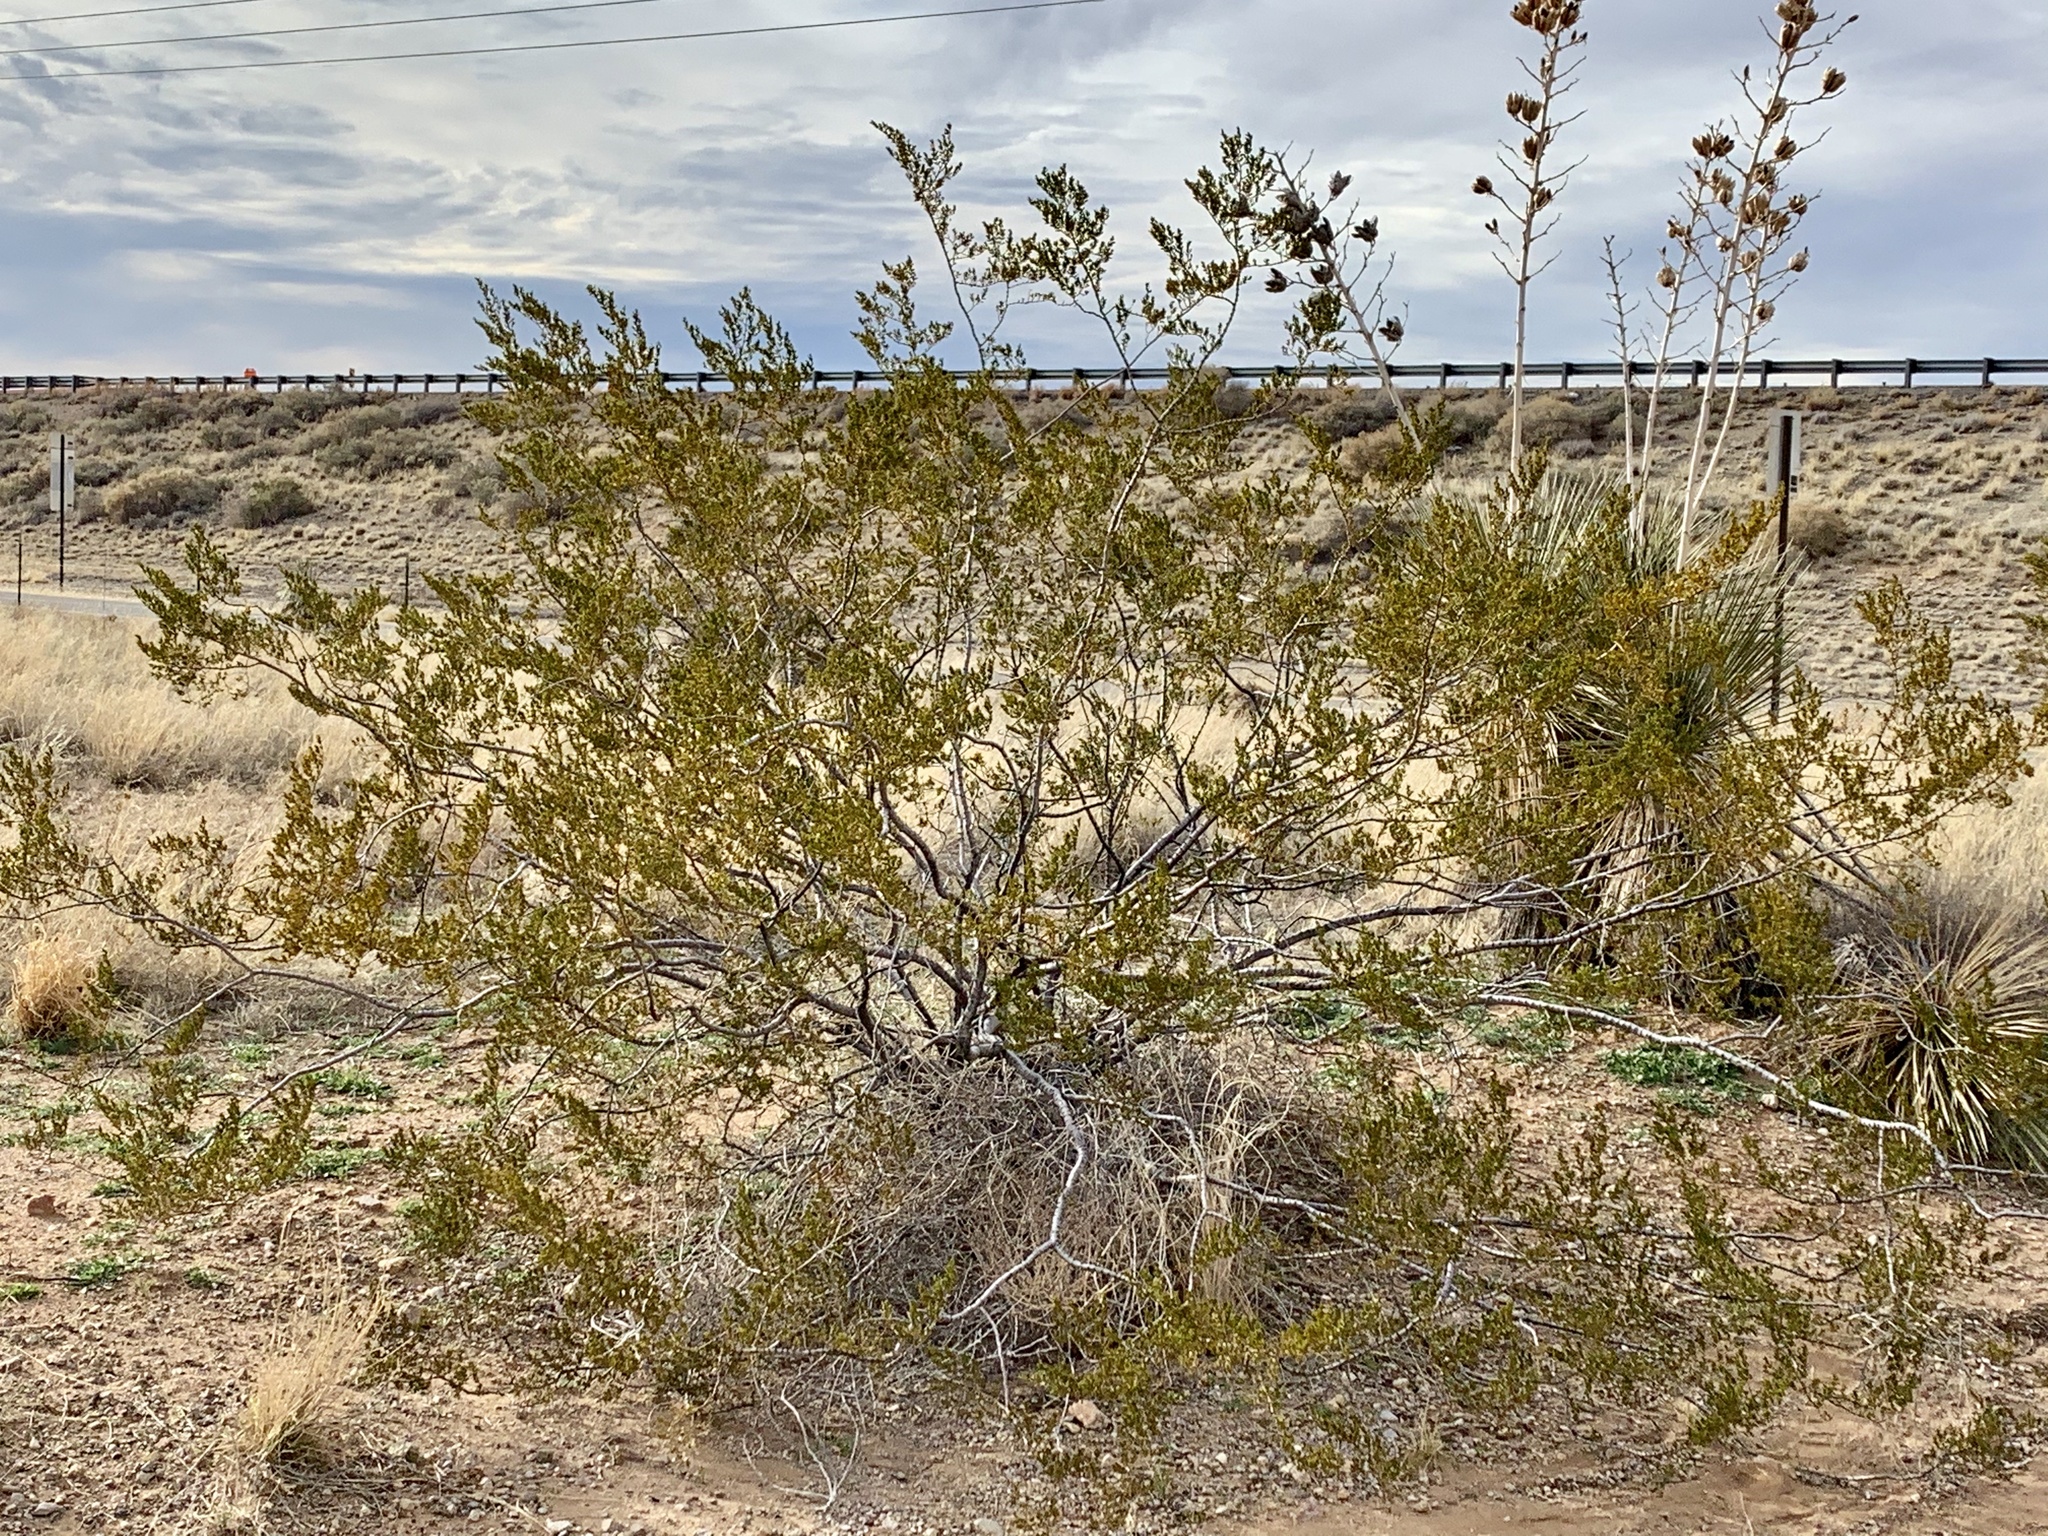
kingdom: Plantae
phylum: Tracheophyta
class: Magnoliopsida
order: Zygophyllales
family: Zygophyllaceae
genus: Larrea
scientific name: Larrea tridentata
